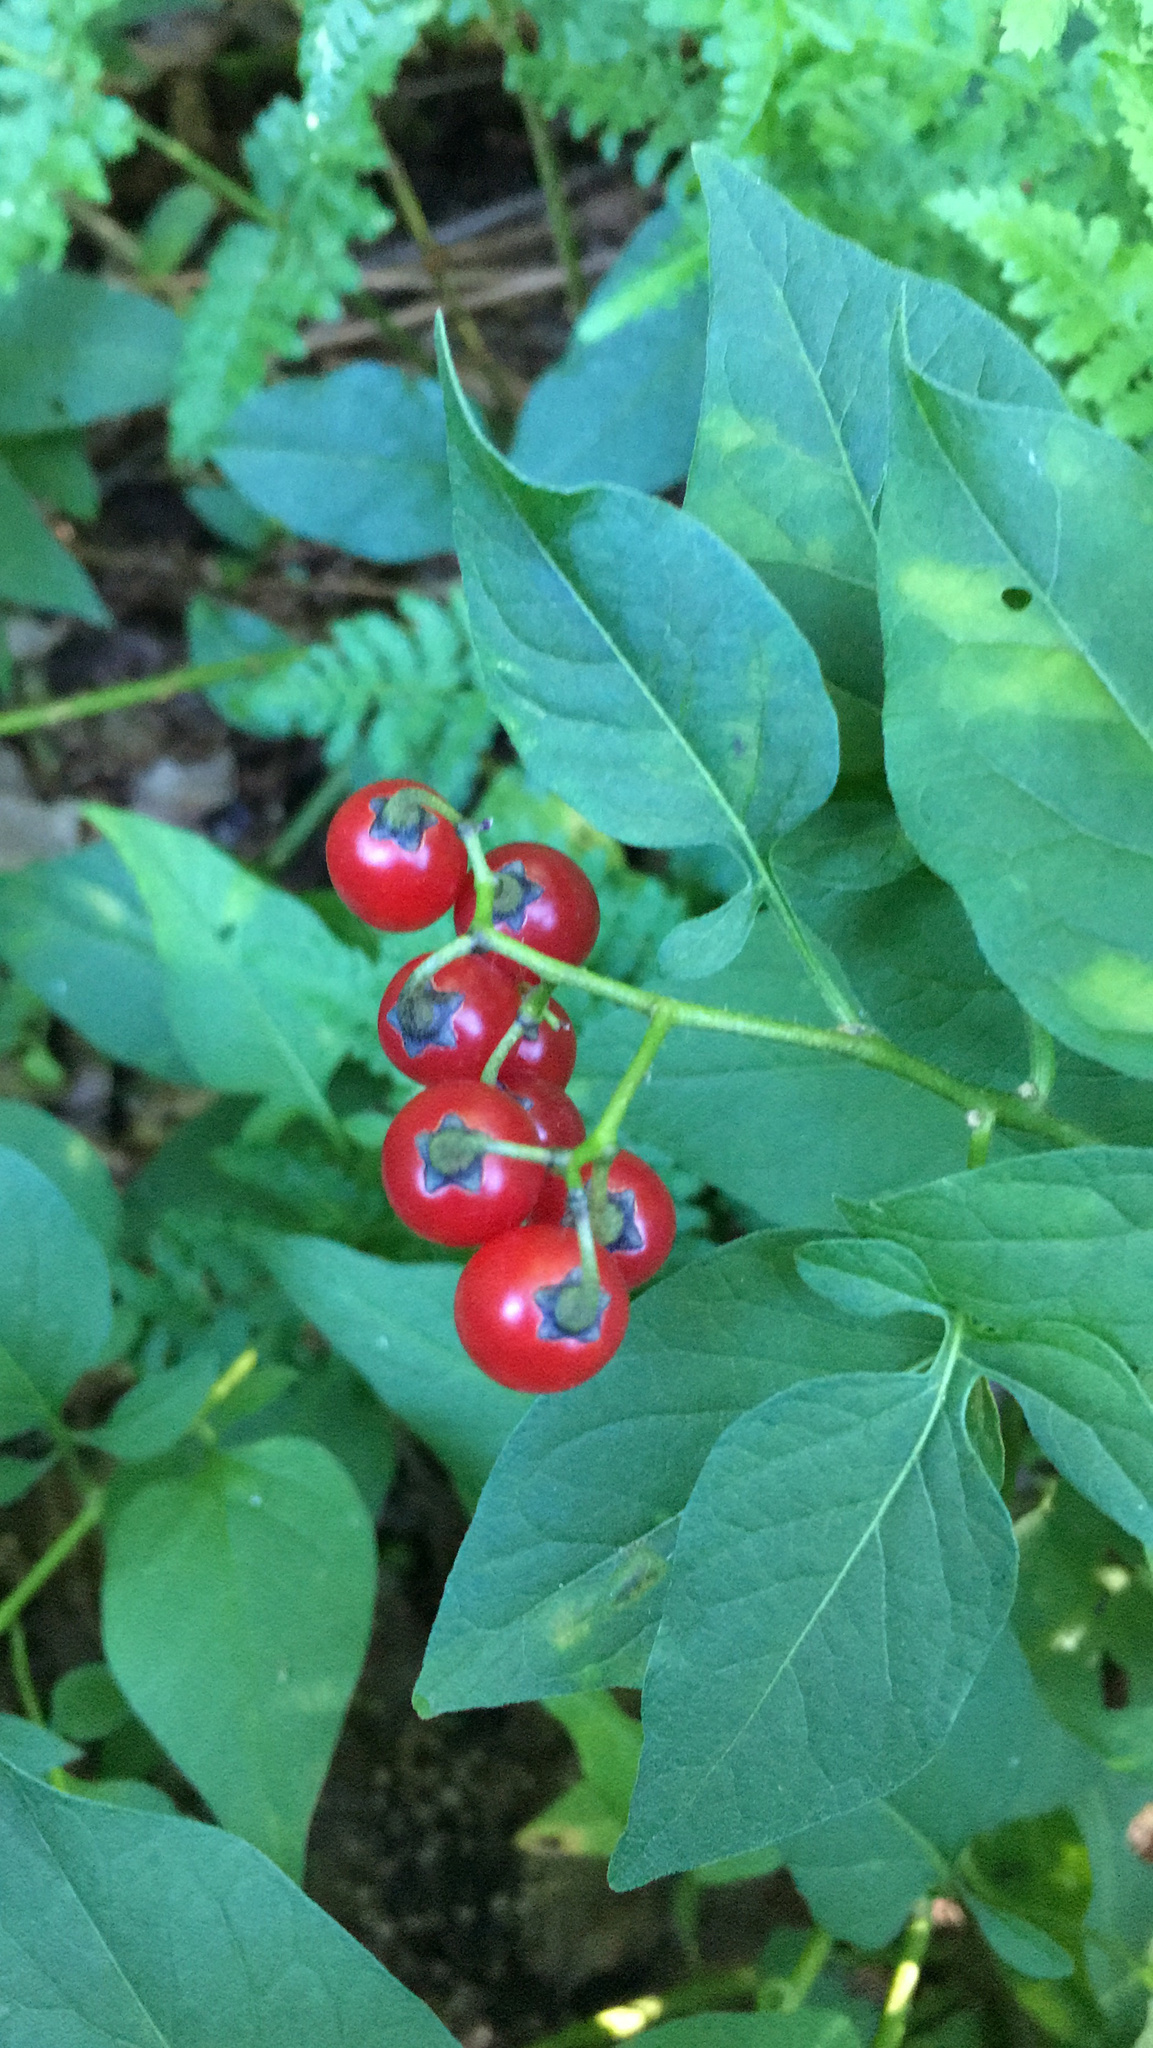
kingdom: Plantae
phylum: Tracheophyta
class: Magnoliopsida
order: Solanales
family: Solanaceae
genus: Solanum
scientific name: Solanum dulcamara
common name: Climbing nightshade
